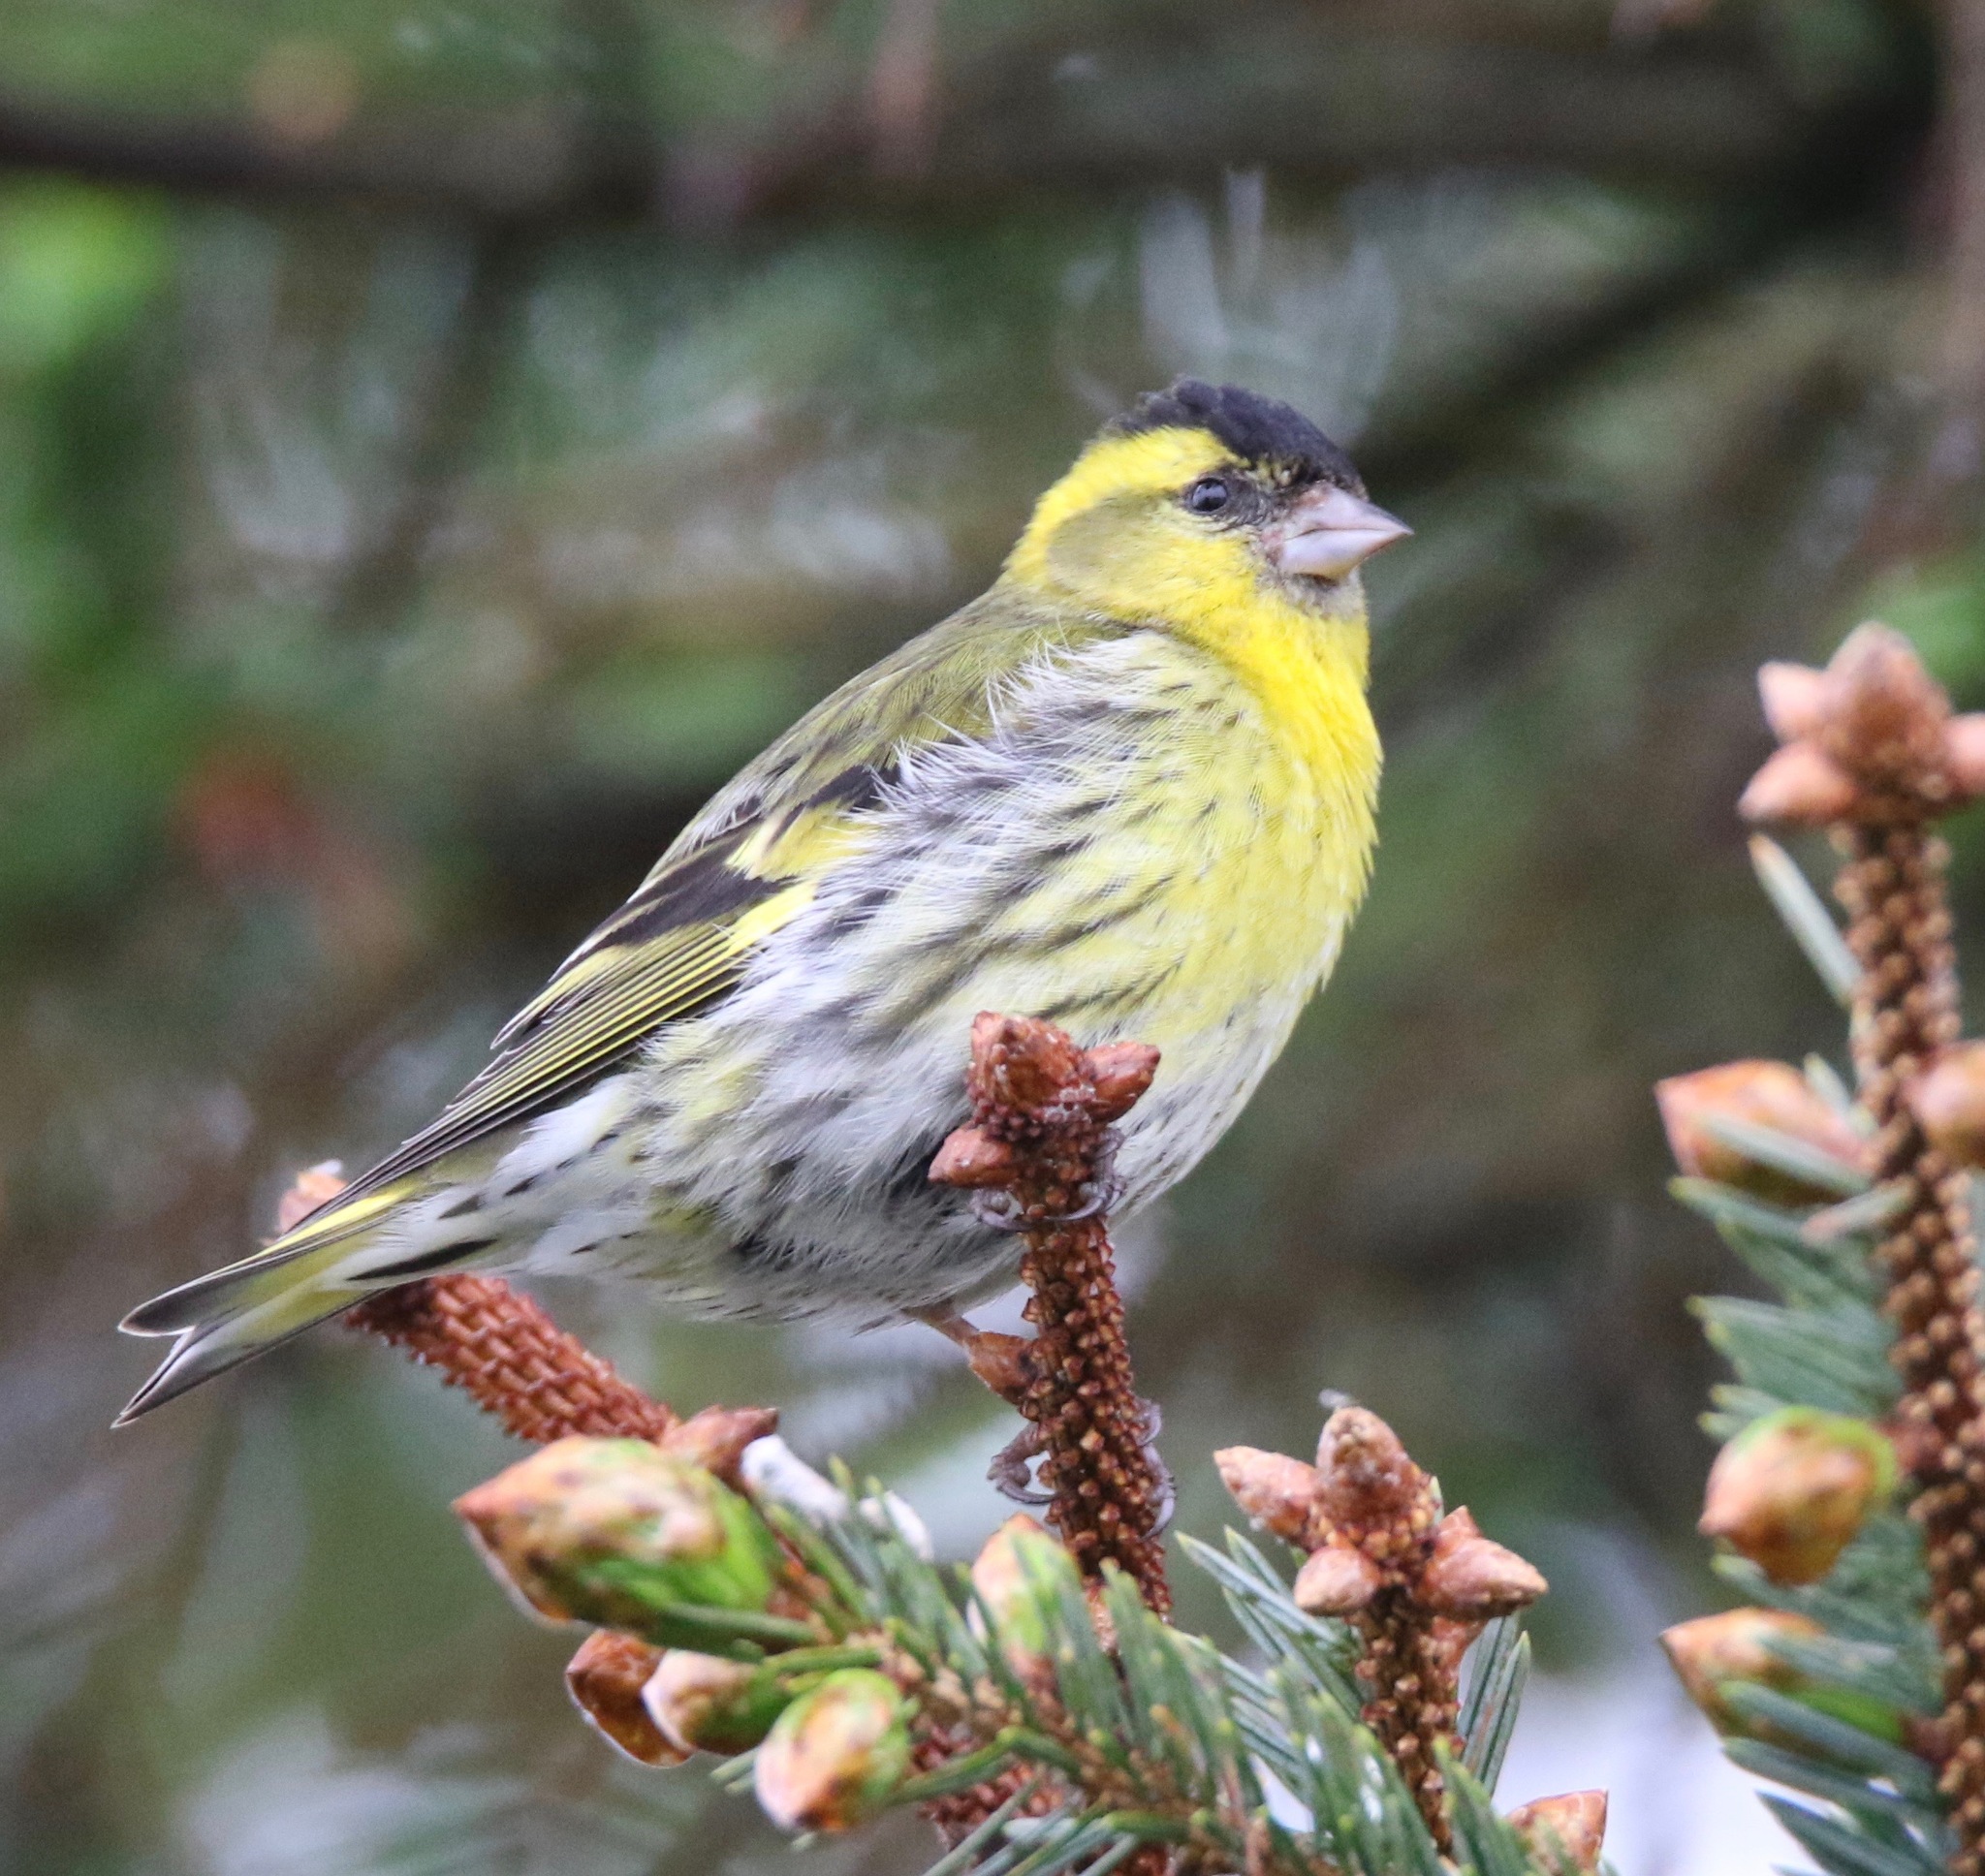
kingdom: Animalia
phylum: Chordata
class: Aves
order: Passeriformes
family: Fringillidae
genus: Spinus
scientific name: Spinus spinus
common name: Eurasian siskin
